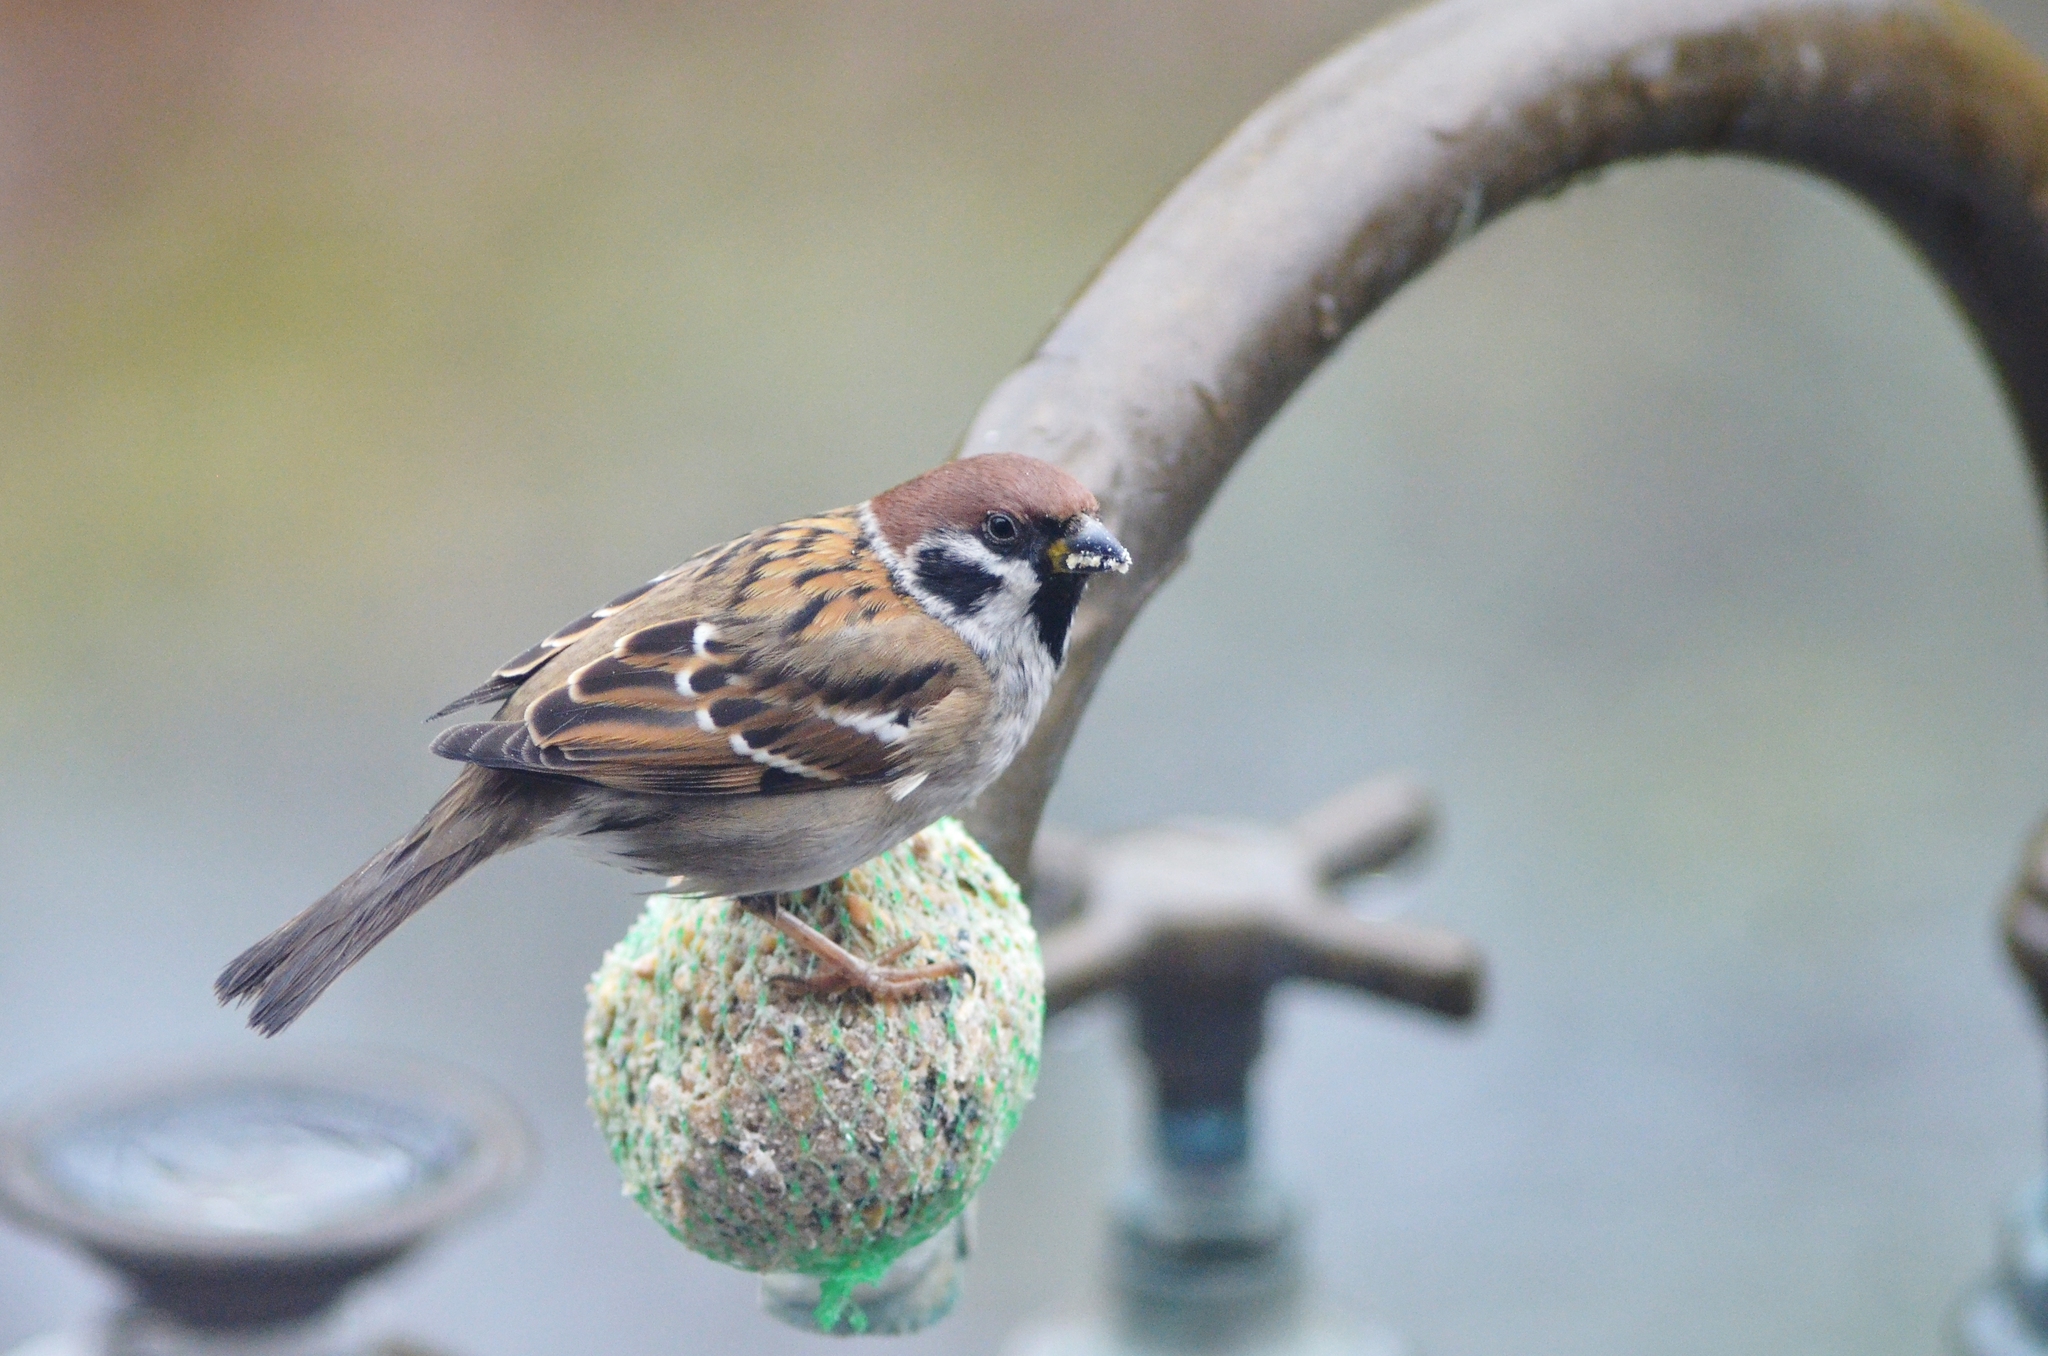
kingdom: Animalia
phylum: Chordata
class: Aves
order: Passeriformes
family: Passeridae
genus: Passer
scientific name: Passer montanus
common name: Eurasian tree sparrow
